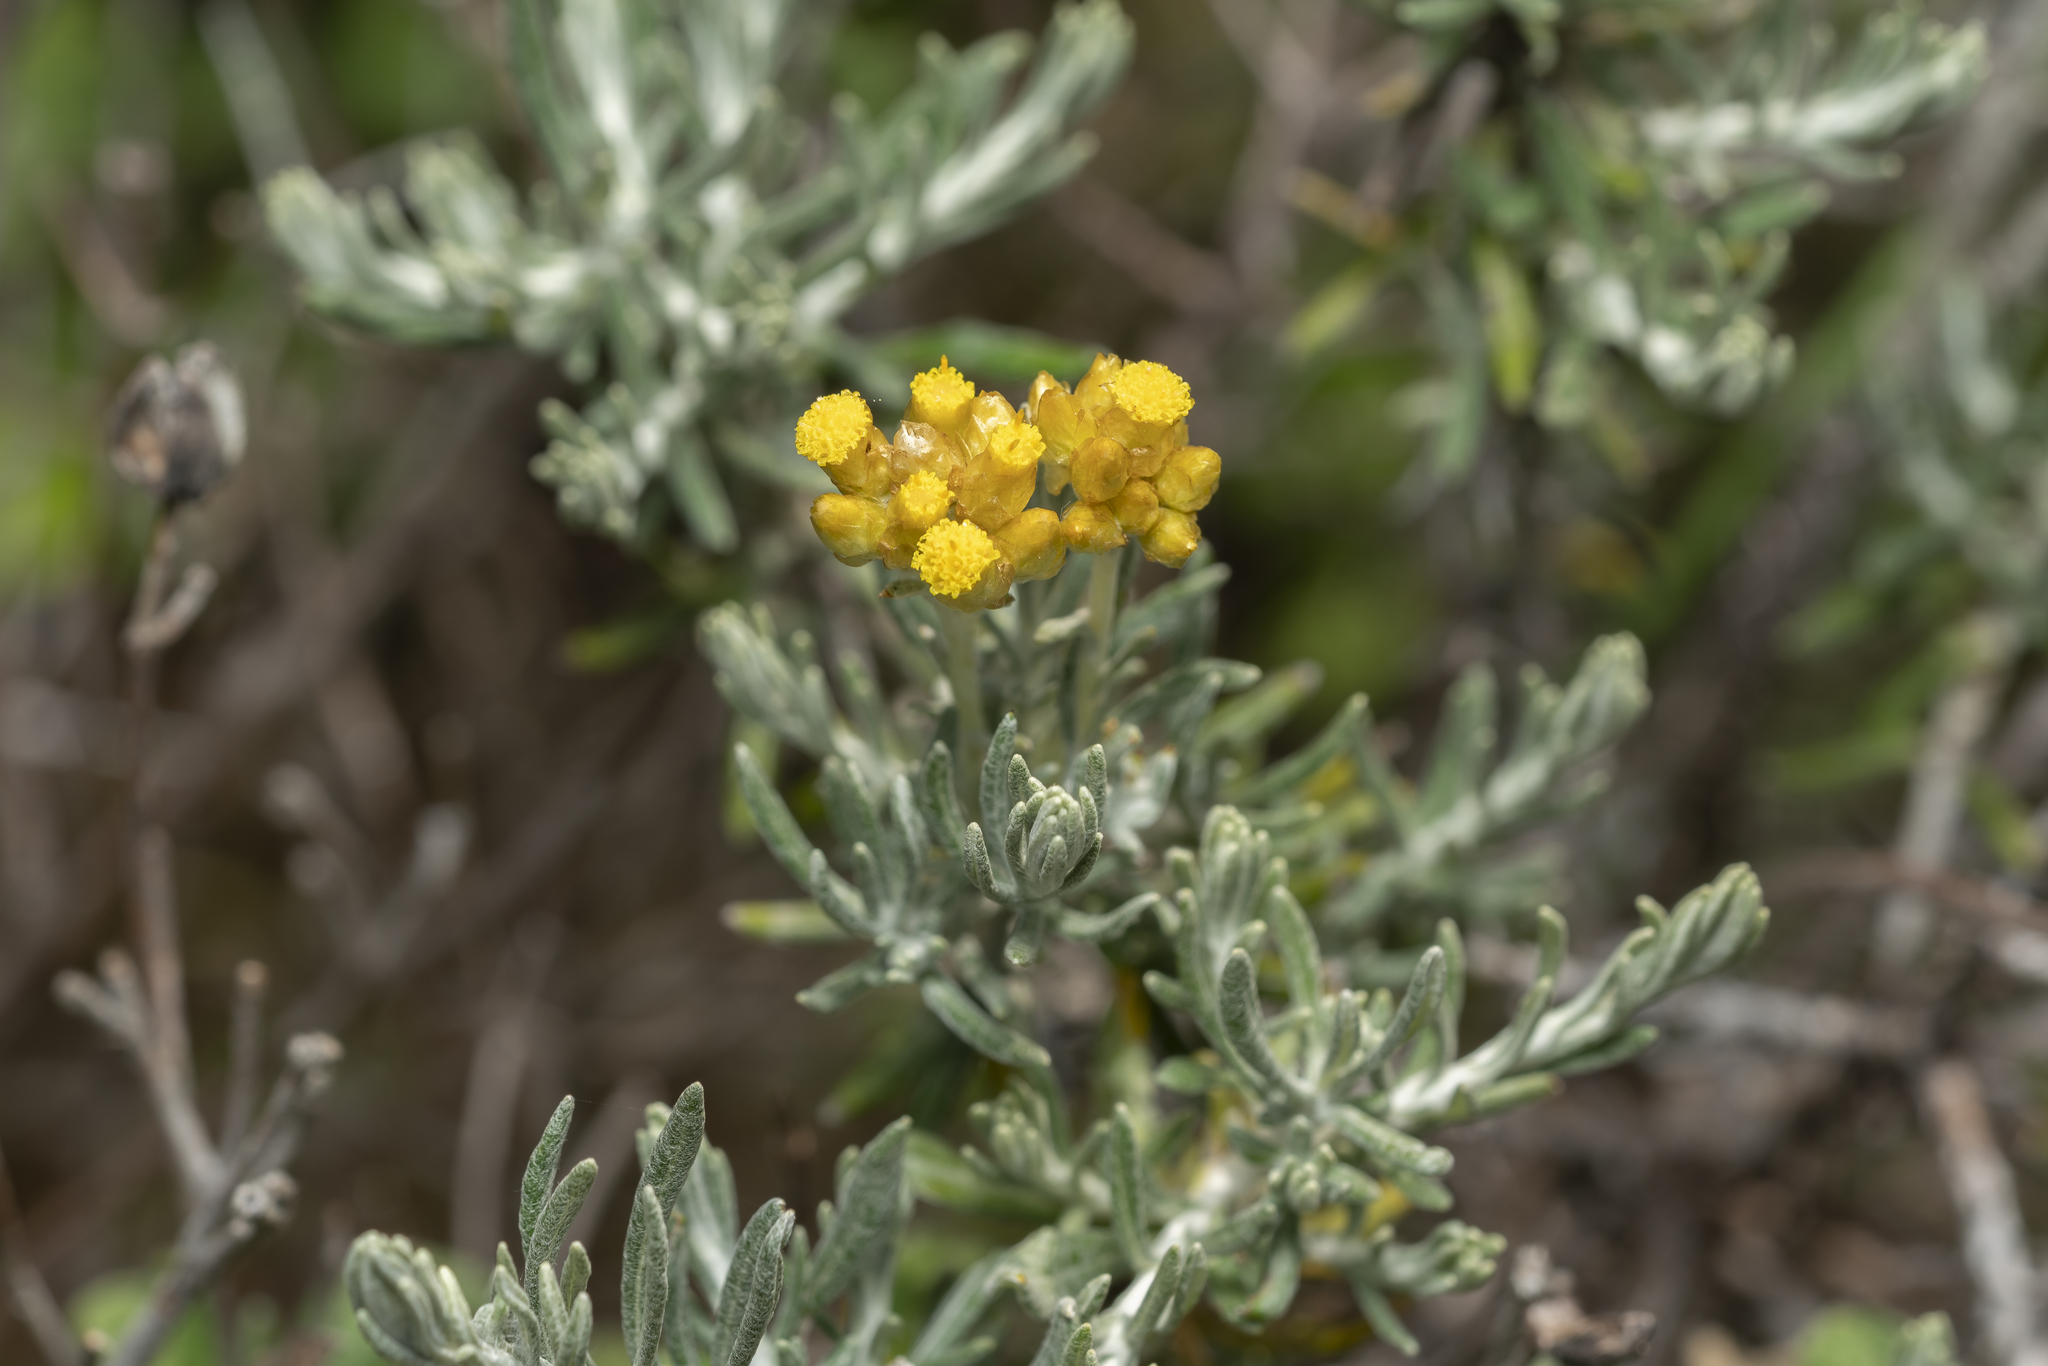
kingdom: Plantae
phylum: Tracheophyta
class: Magnoliopsida
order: Asterales
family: Asteraceae
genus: Helichrysum
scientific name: Helichrysum stoechas
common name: Goldilocks
